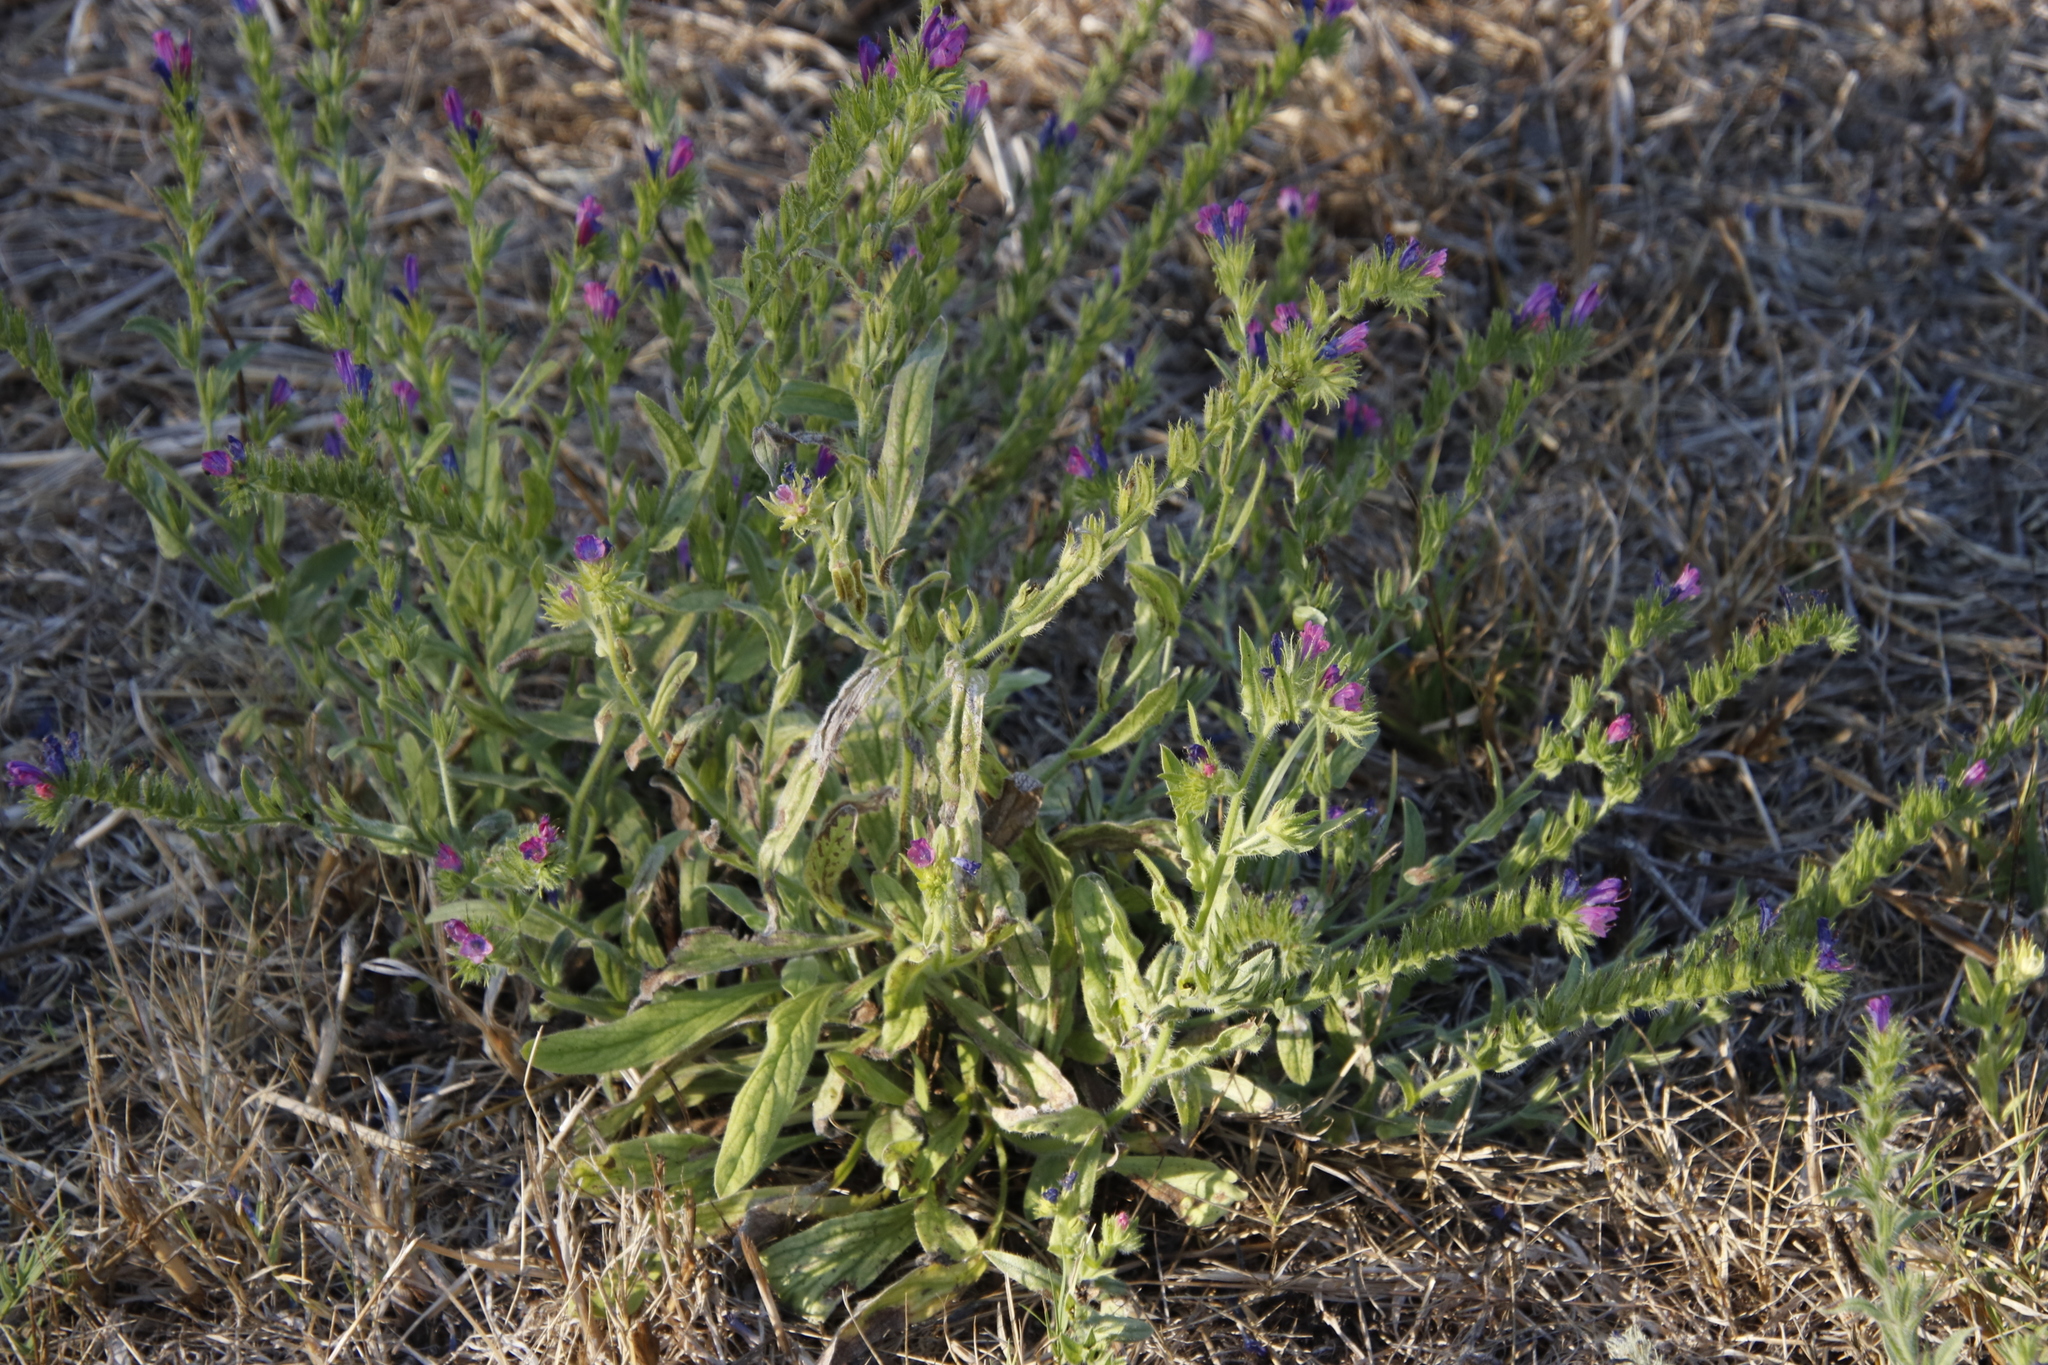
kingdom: Plantae
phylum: Tracheophyta
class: Magnoliopsida
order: Boraginales
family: Boraginaceae
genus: Echium
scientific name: Echium plantagineum
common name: Purple viper's-bugloss
